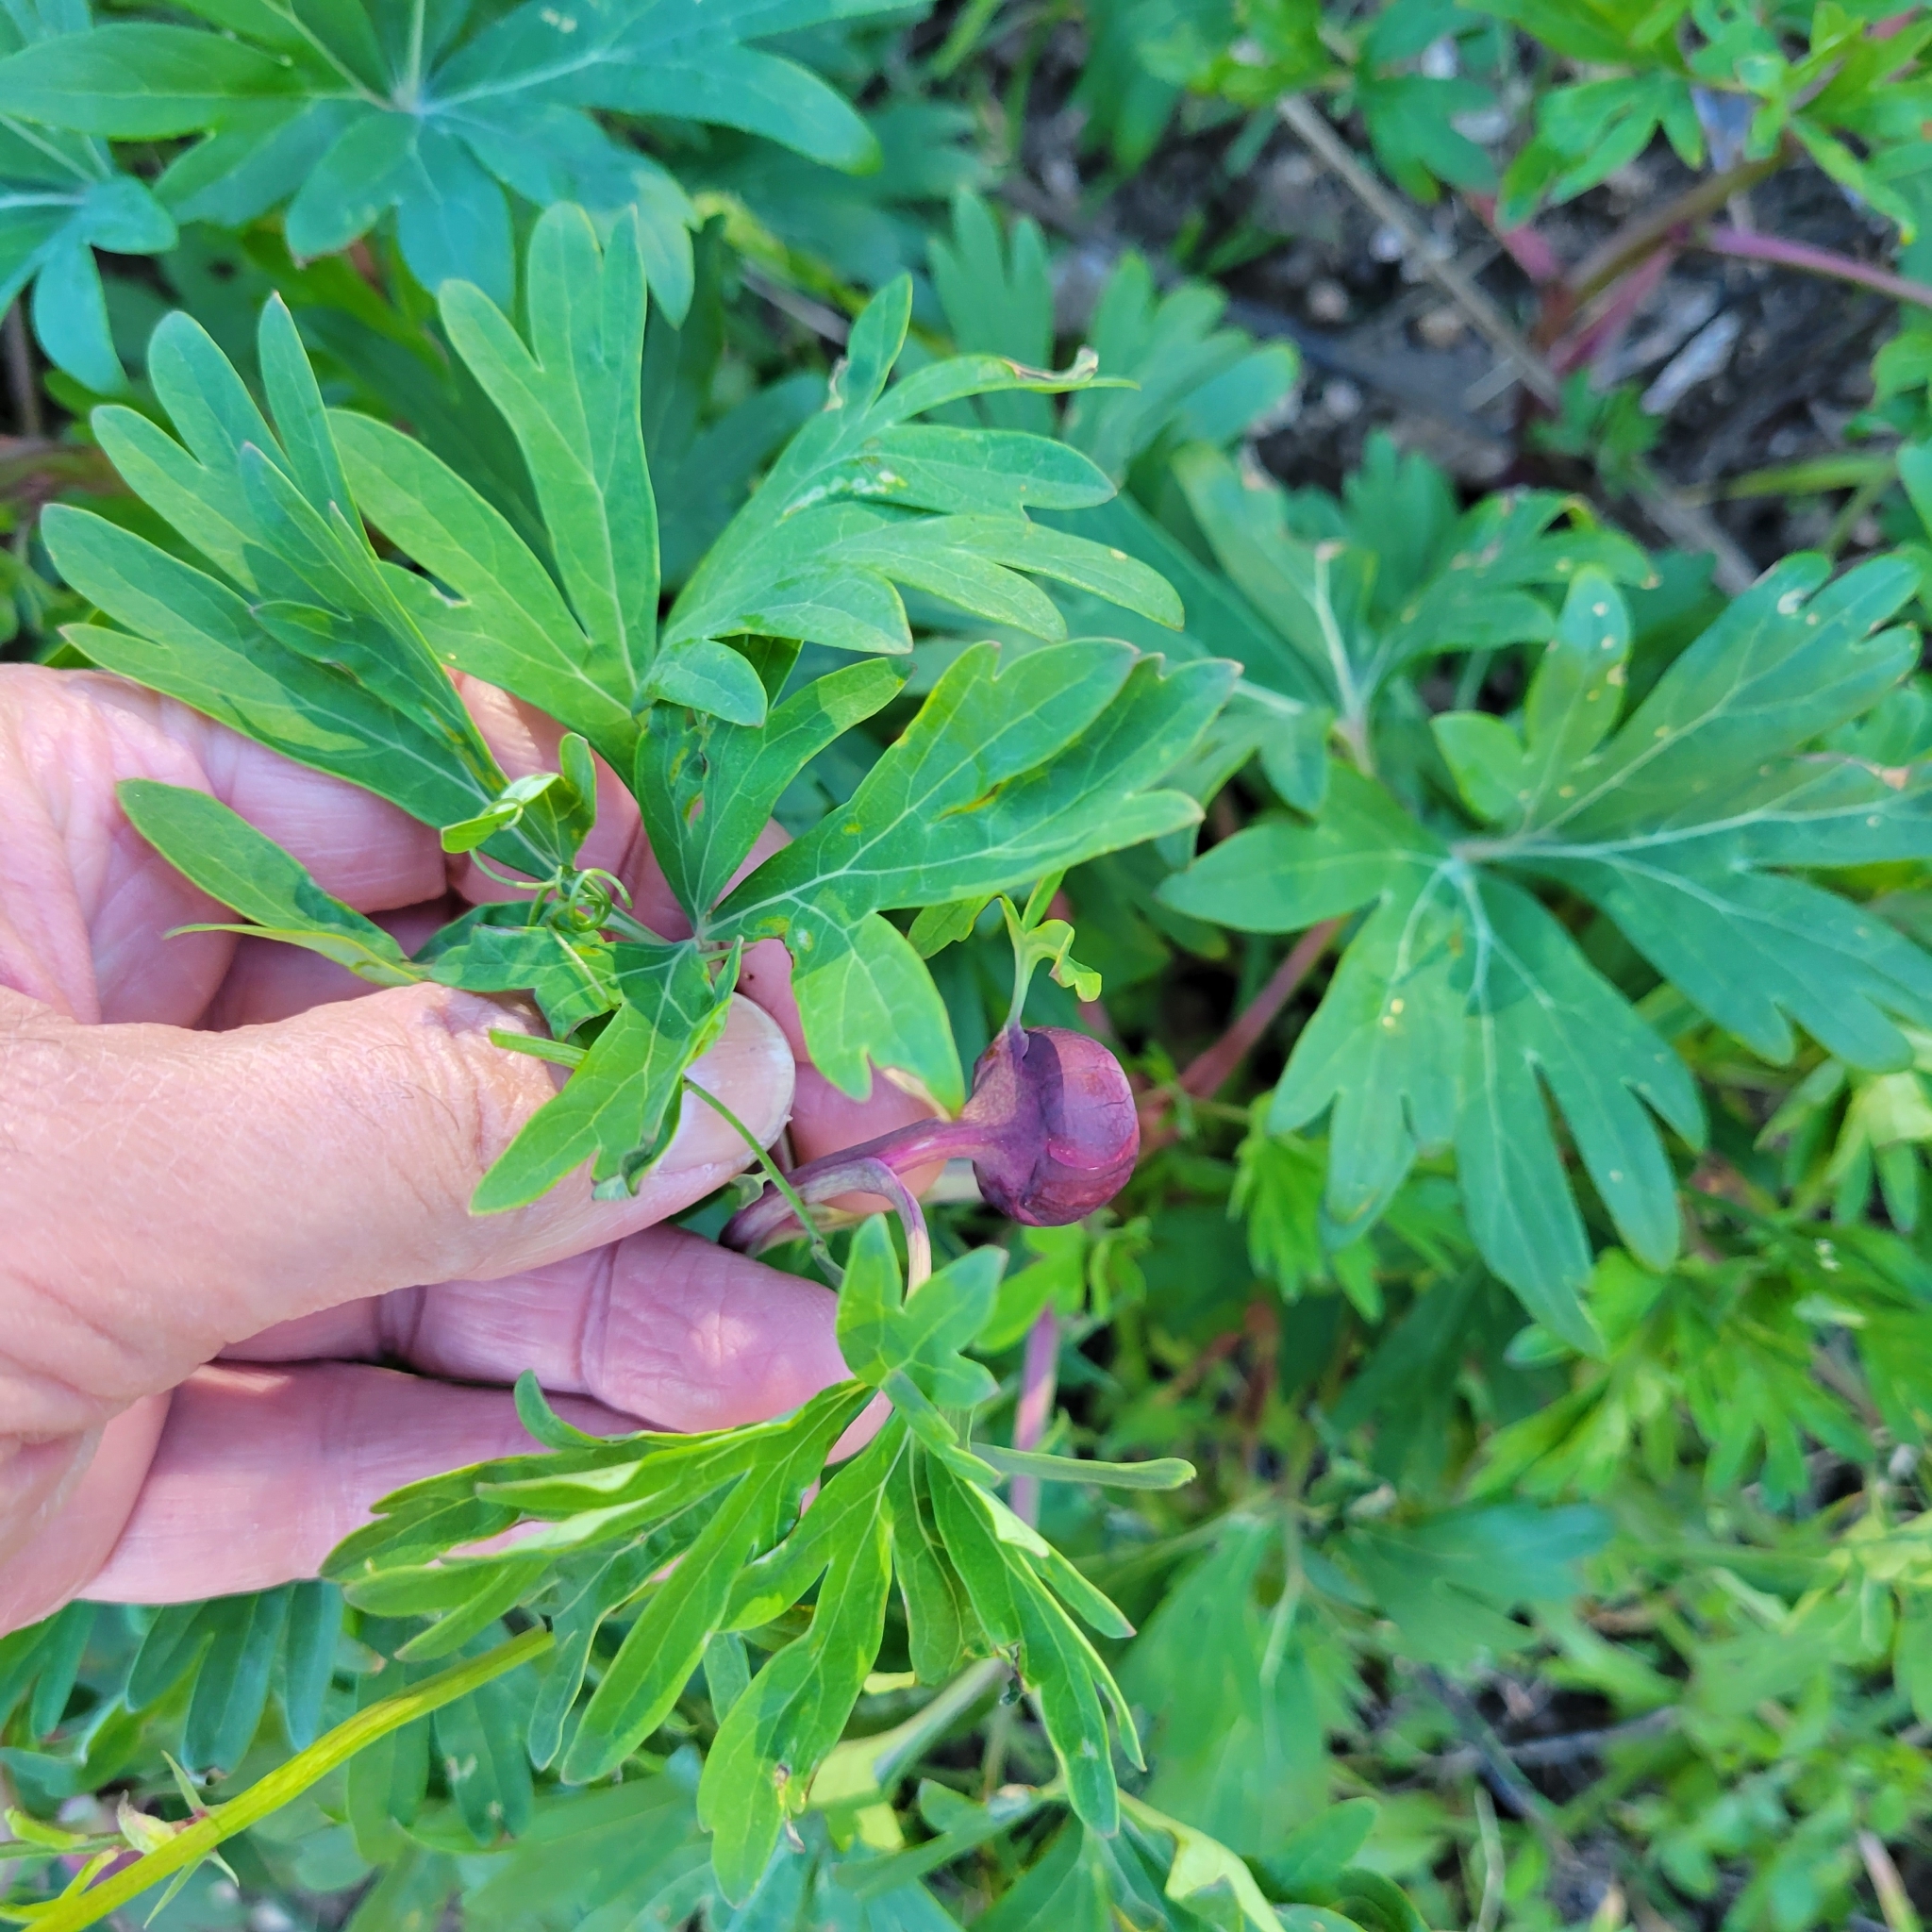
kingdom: Plantae
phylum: Tracheophyta
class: Magnoliopsida
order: Saxifragales
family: Paeoniaceae
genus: Paeonia
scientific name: Paeonia californica
